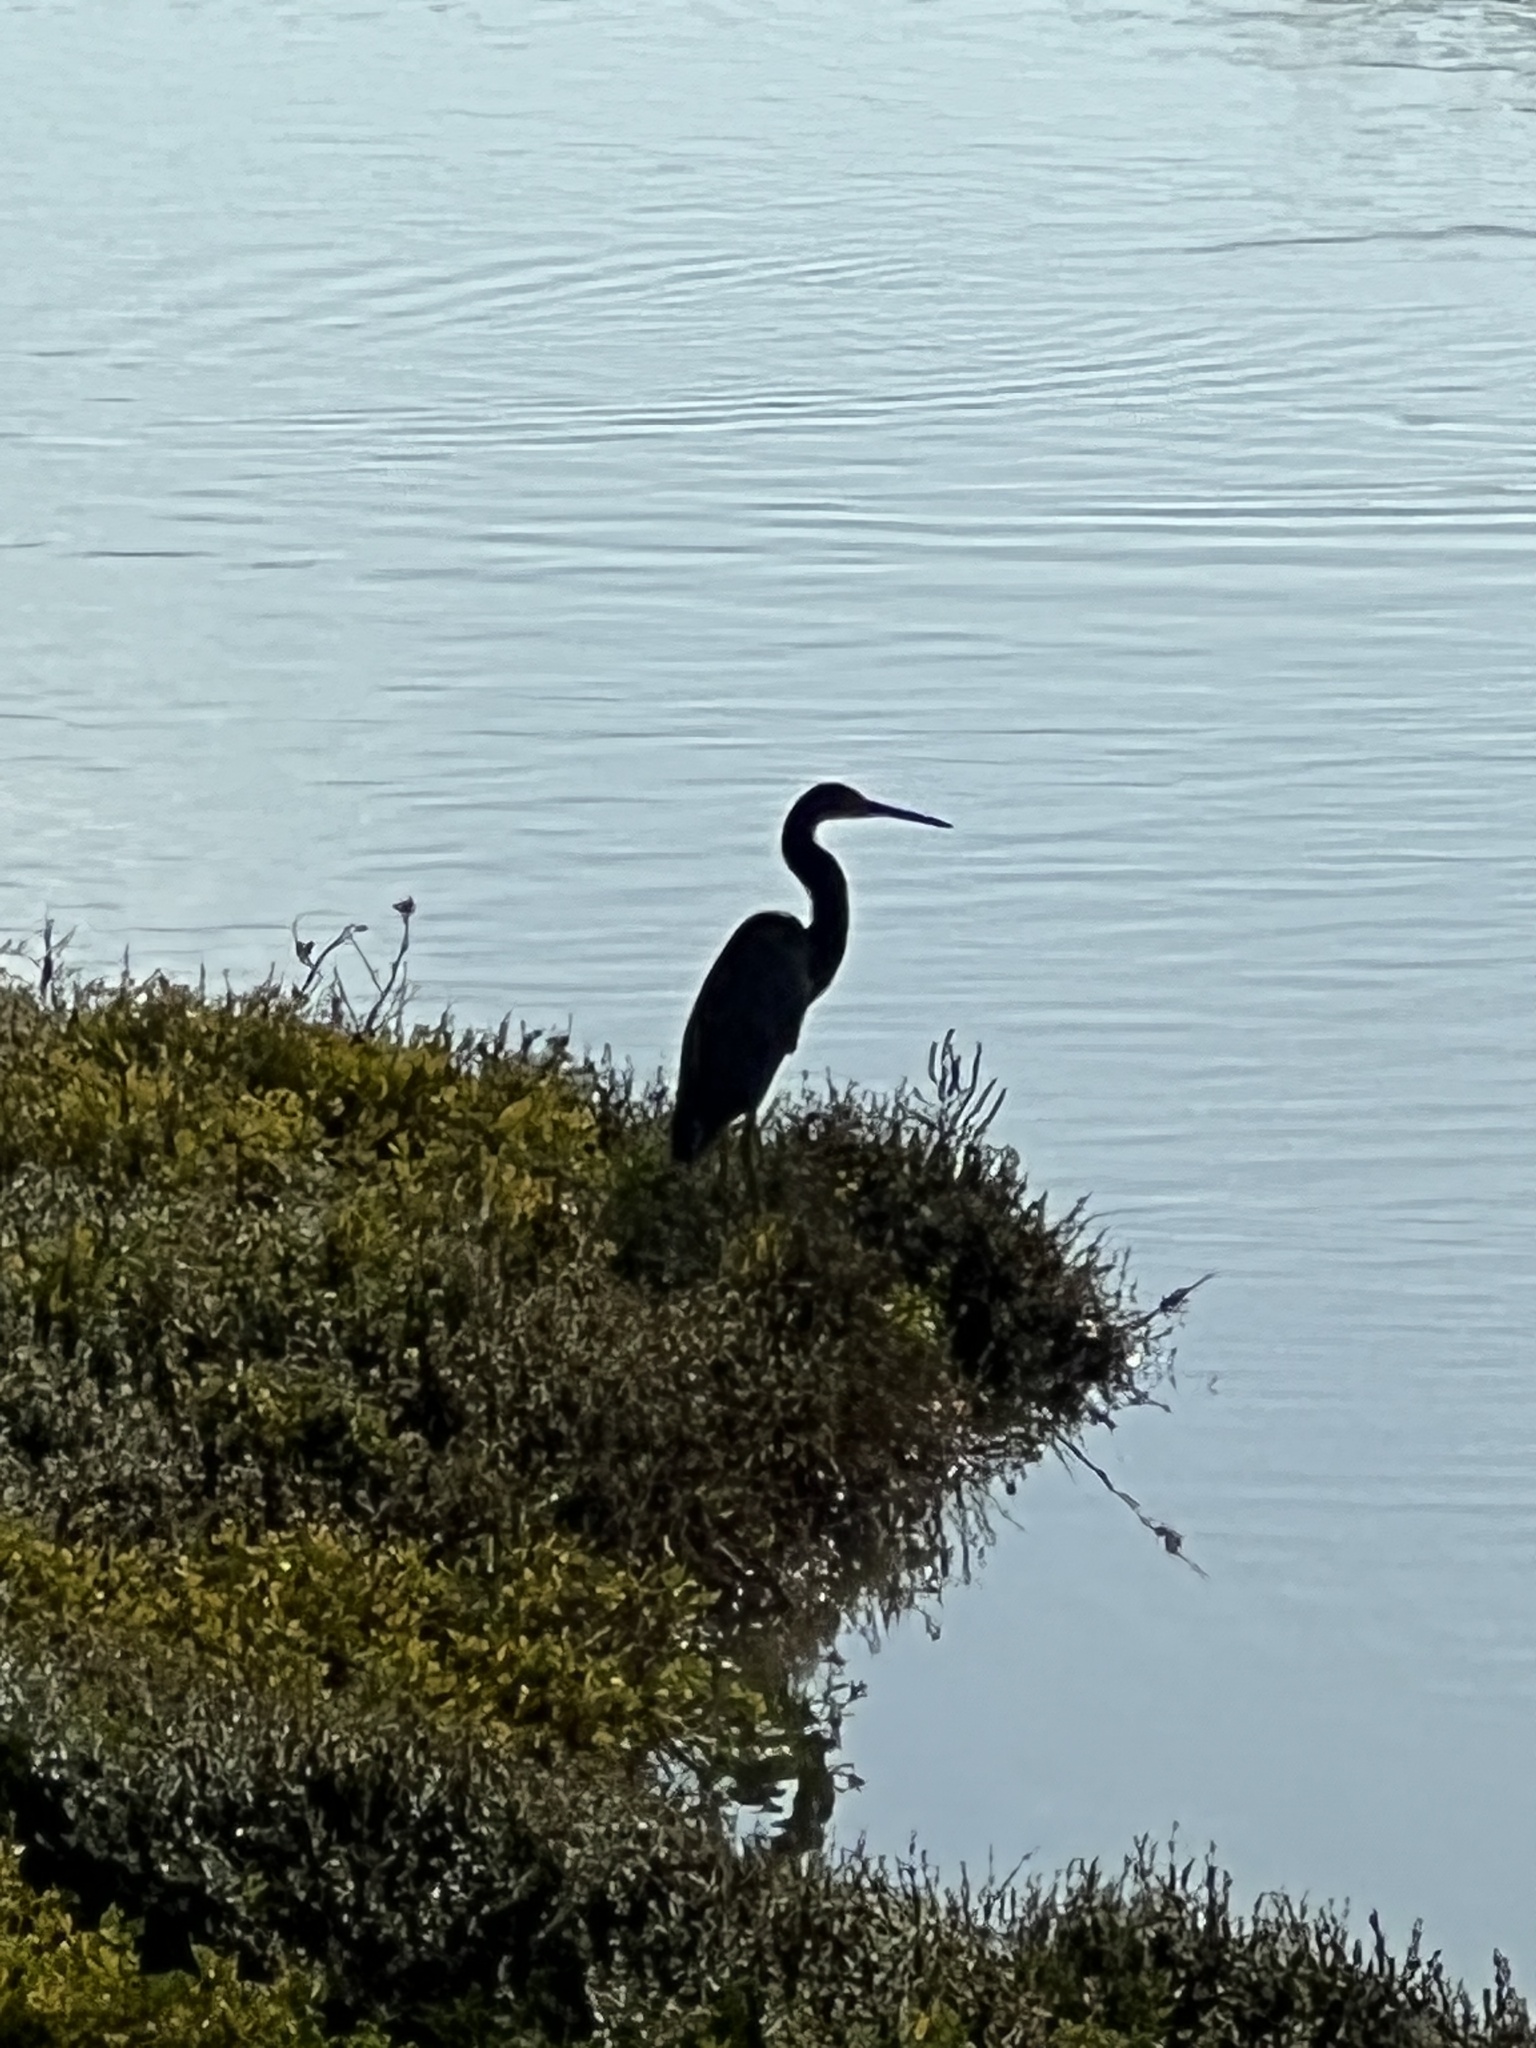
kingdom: Animalia
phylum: Chordata
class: Aves
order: Pelecaniformes
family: Ardeidae
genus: Egretta
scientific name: Egretta tricolor
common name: Tricolored heron
